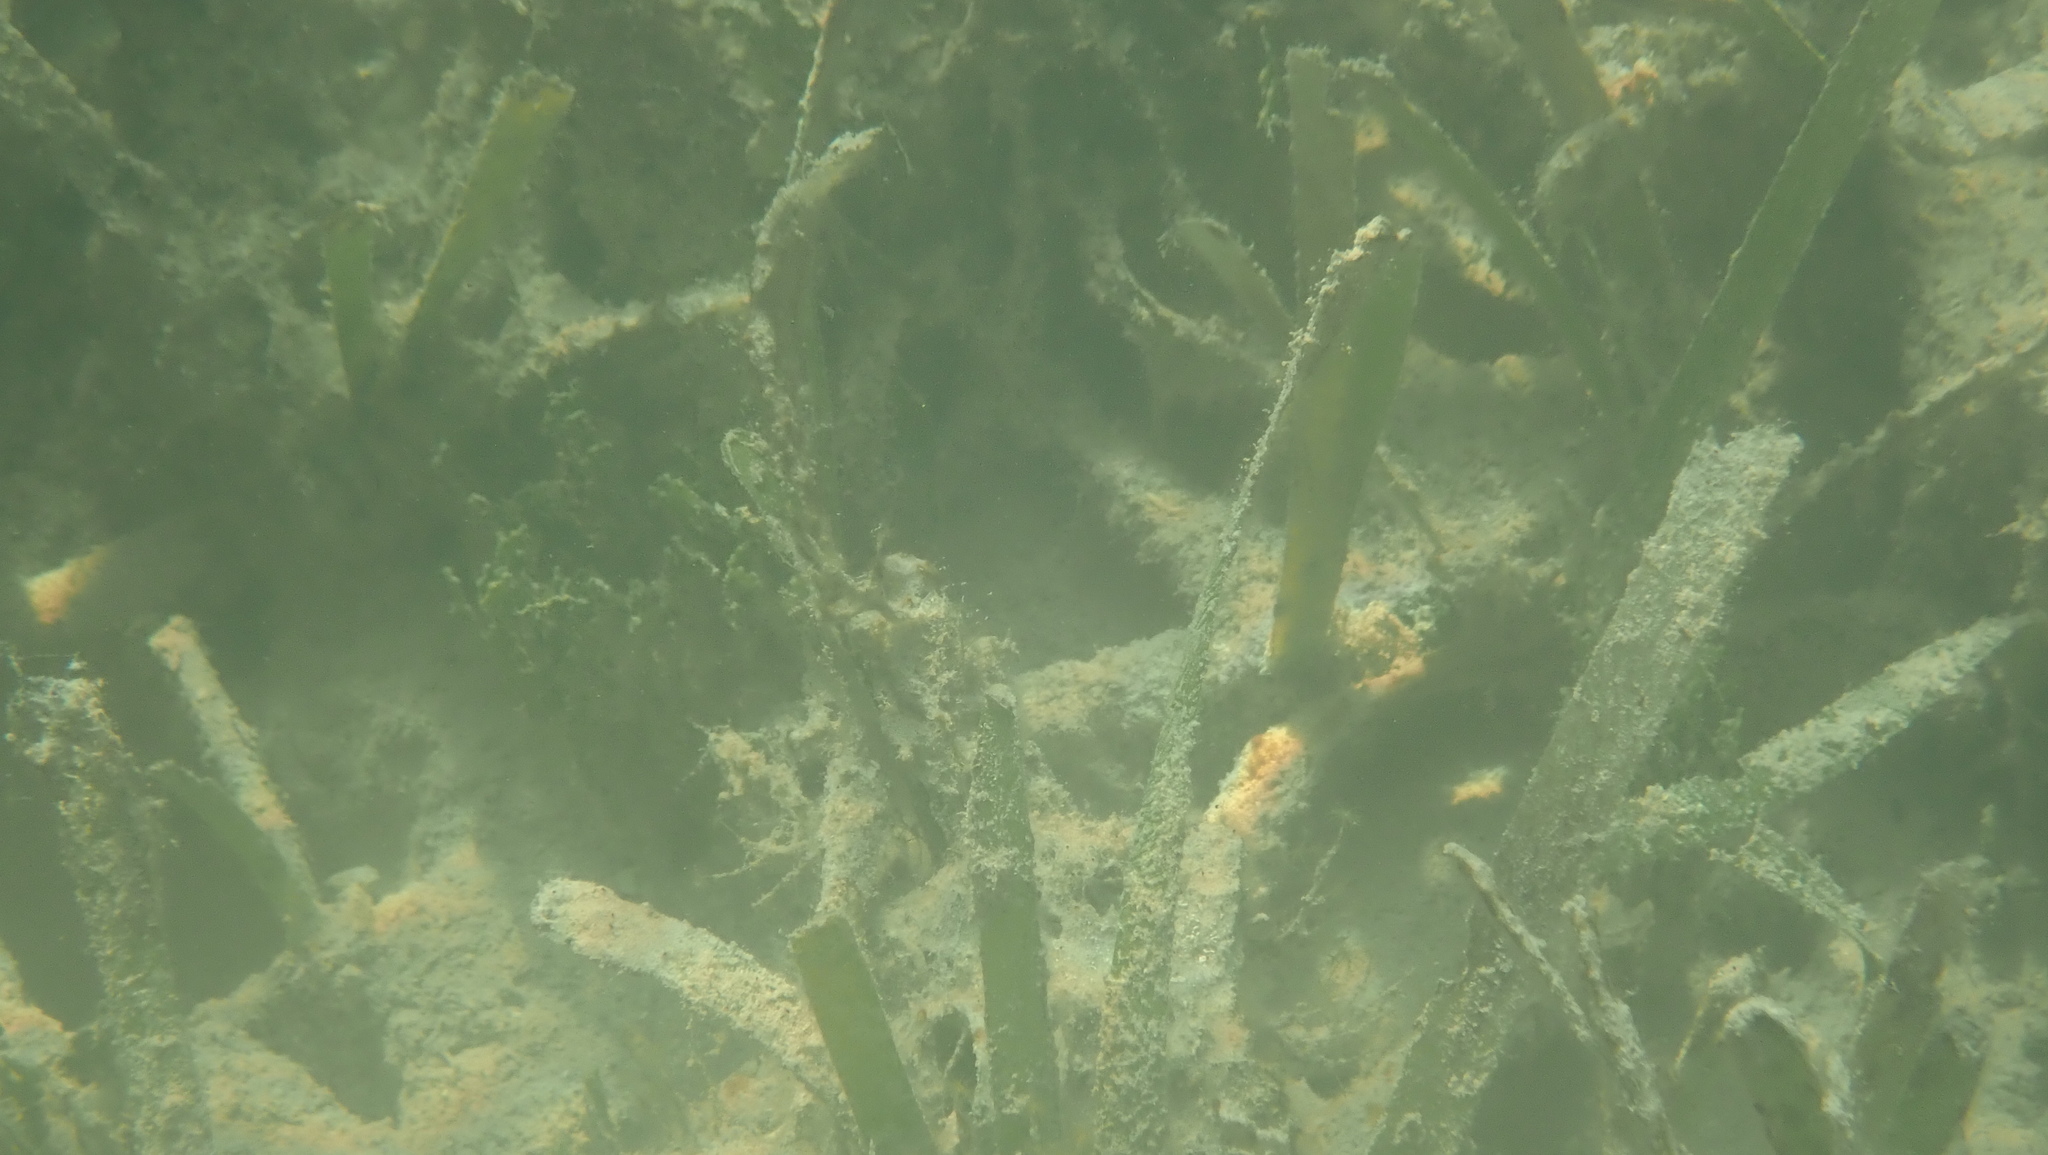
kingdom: Plantae
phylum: Tracheophyta
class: Liliopsida
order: Alismatales
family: Hydrocharitaceae
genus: Thalassia
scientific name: Thalassia testudinum
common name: Species code: tt
